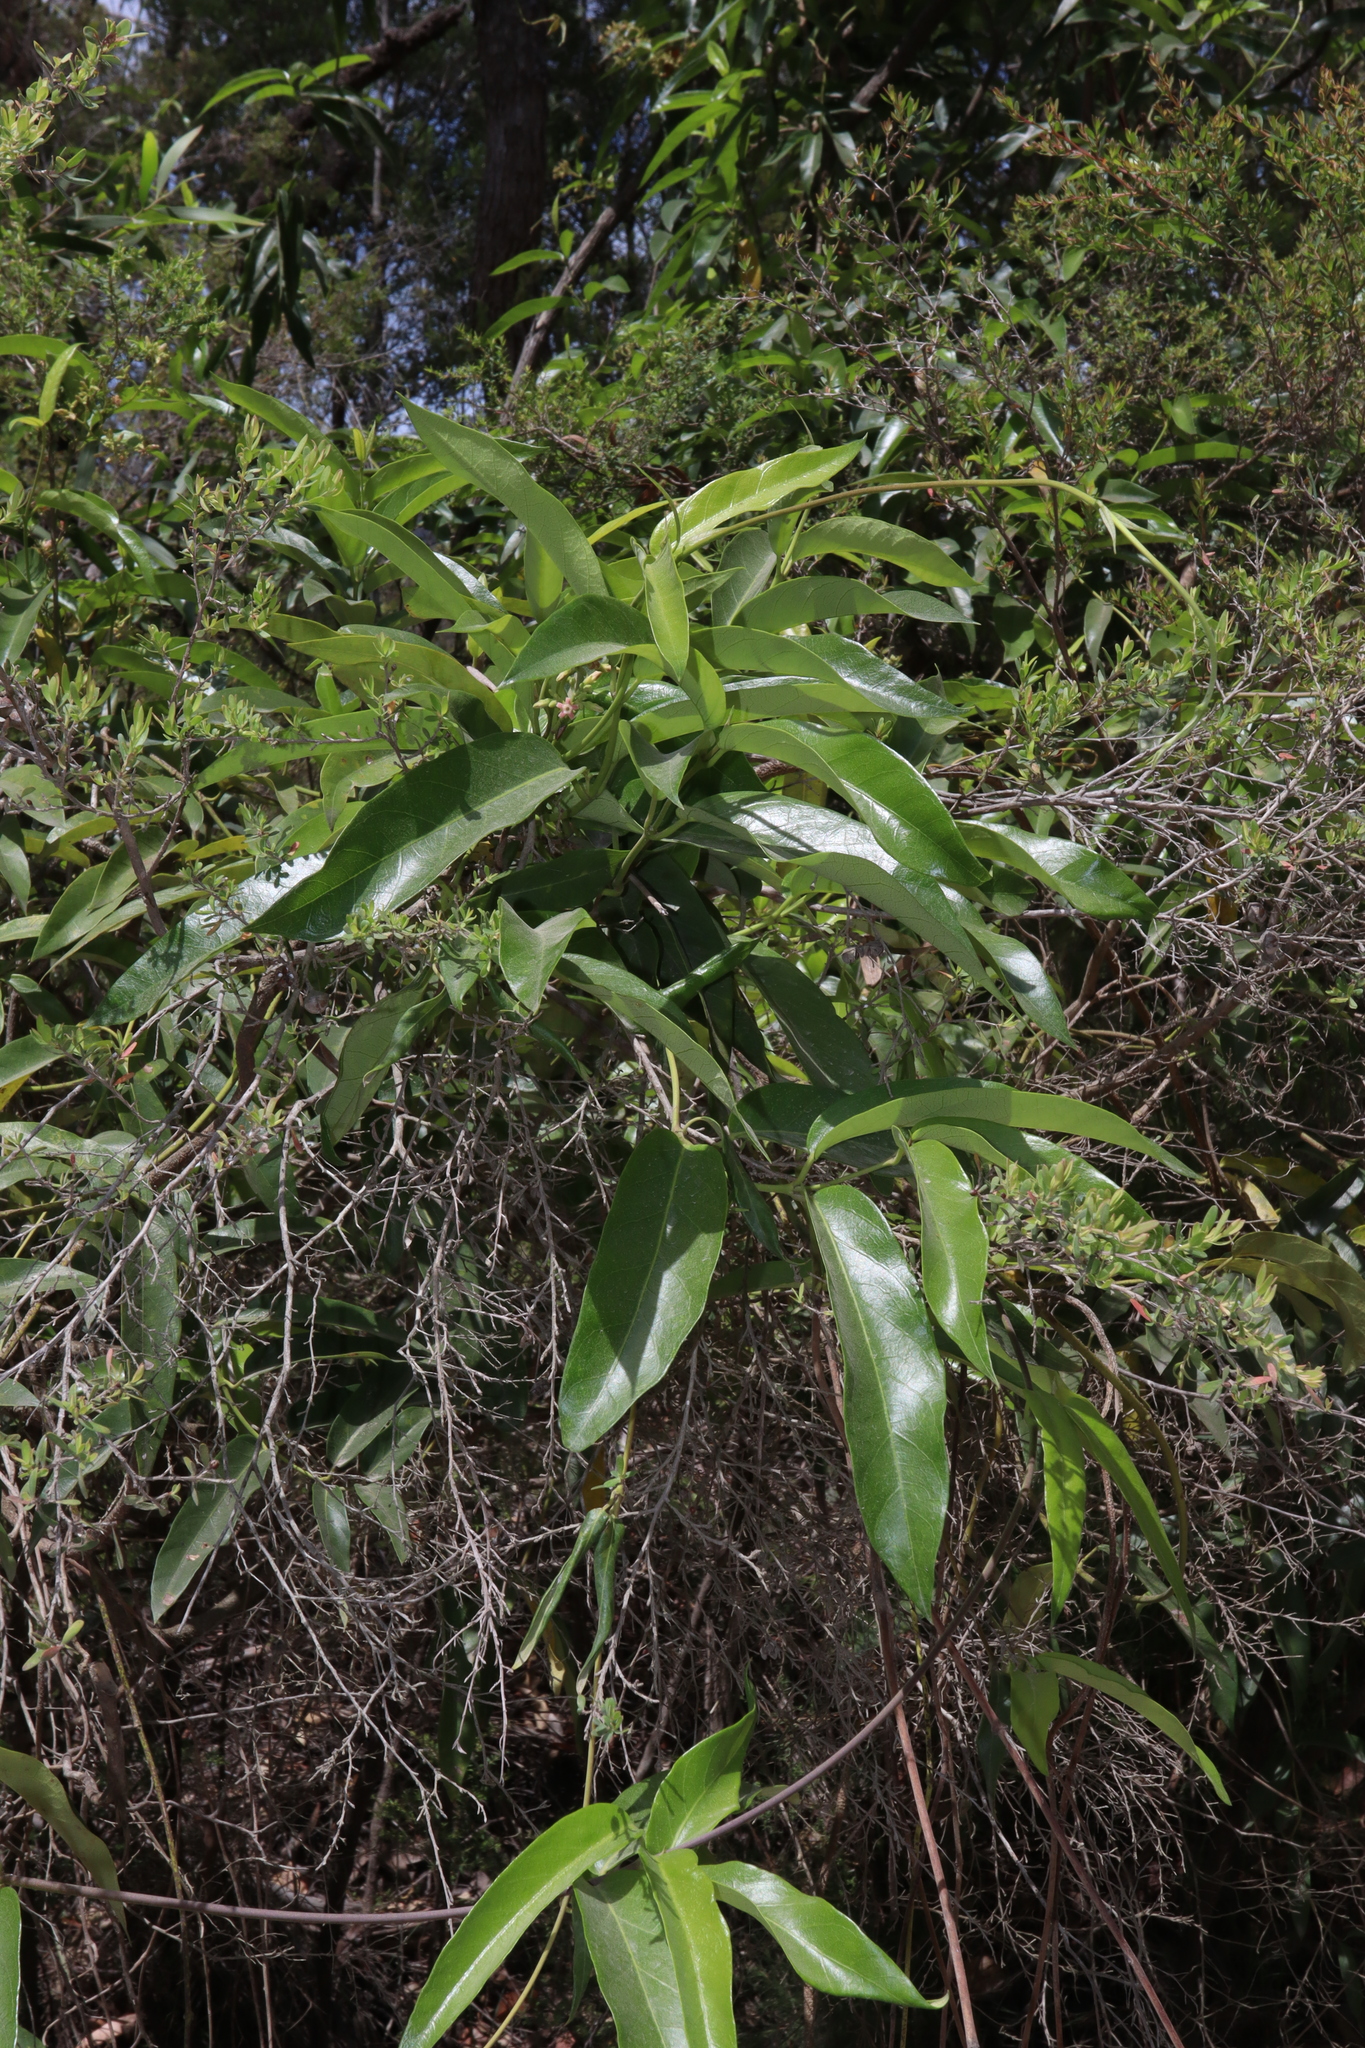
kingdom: Plantae
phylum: Tracheophyta
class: Magnoliopsida
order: Gentianales
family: Apocynaceae
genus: Parsonsia
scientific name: Parsonsia straminea
